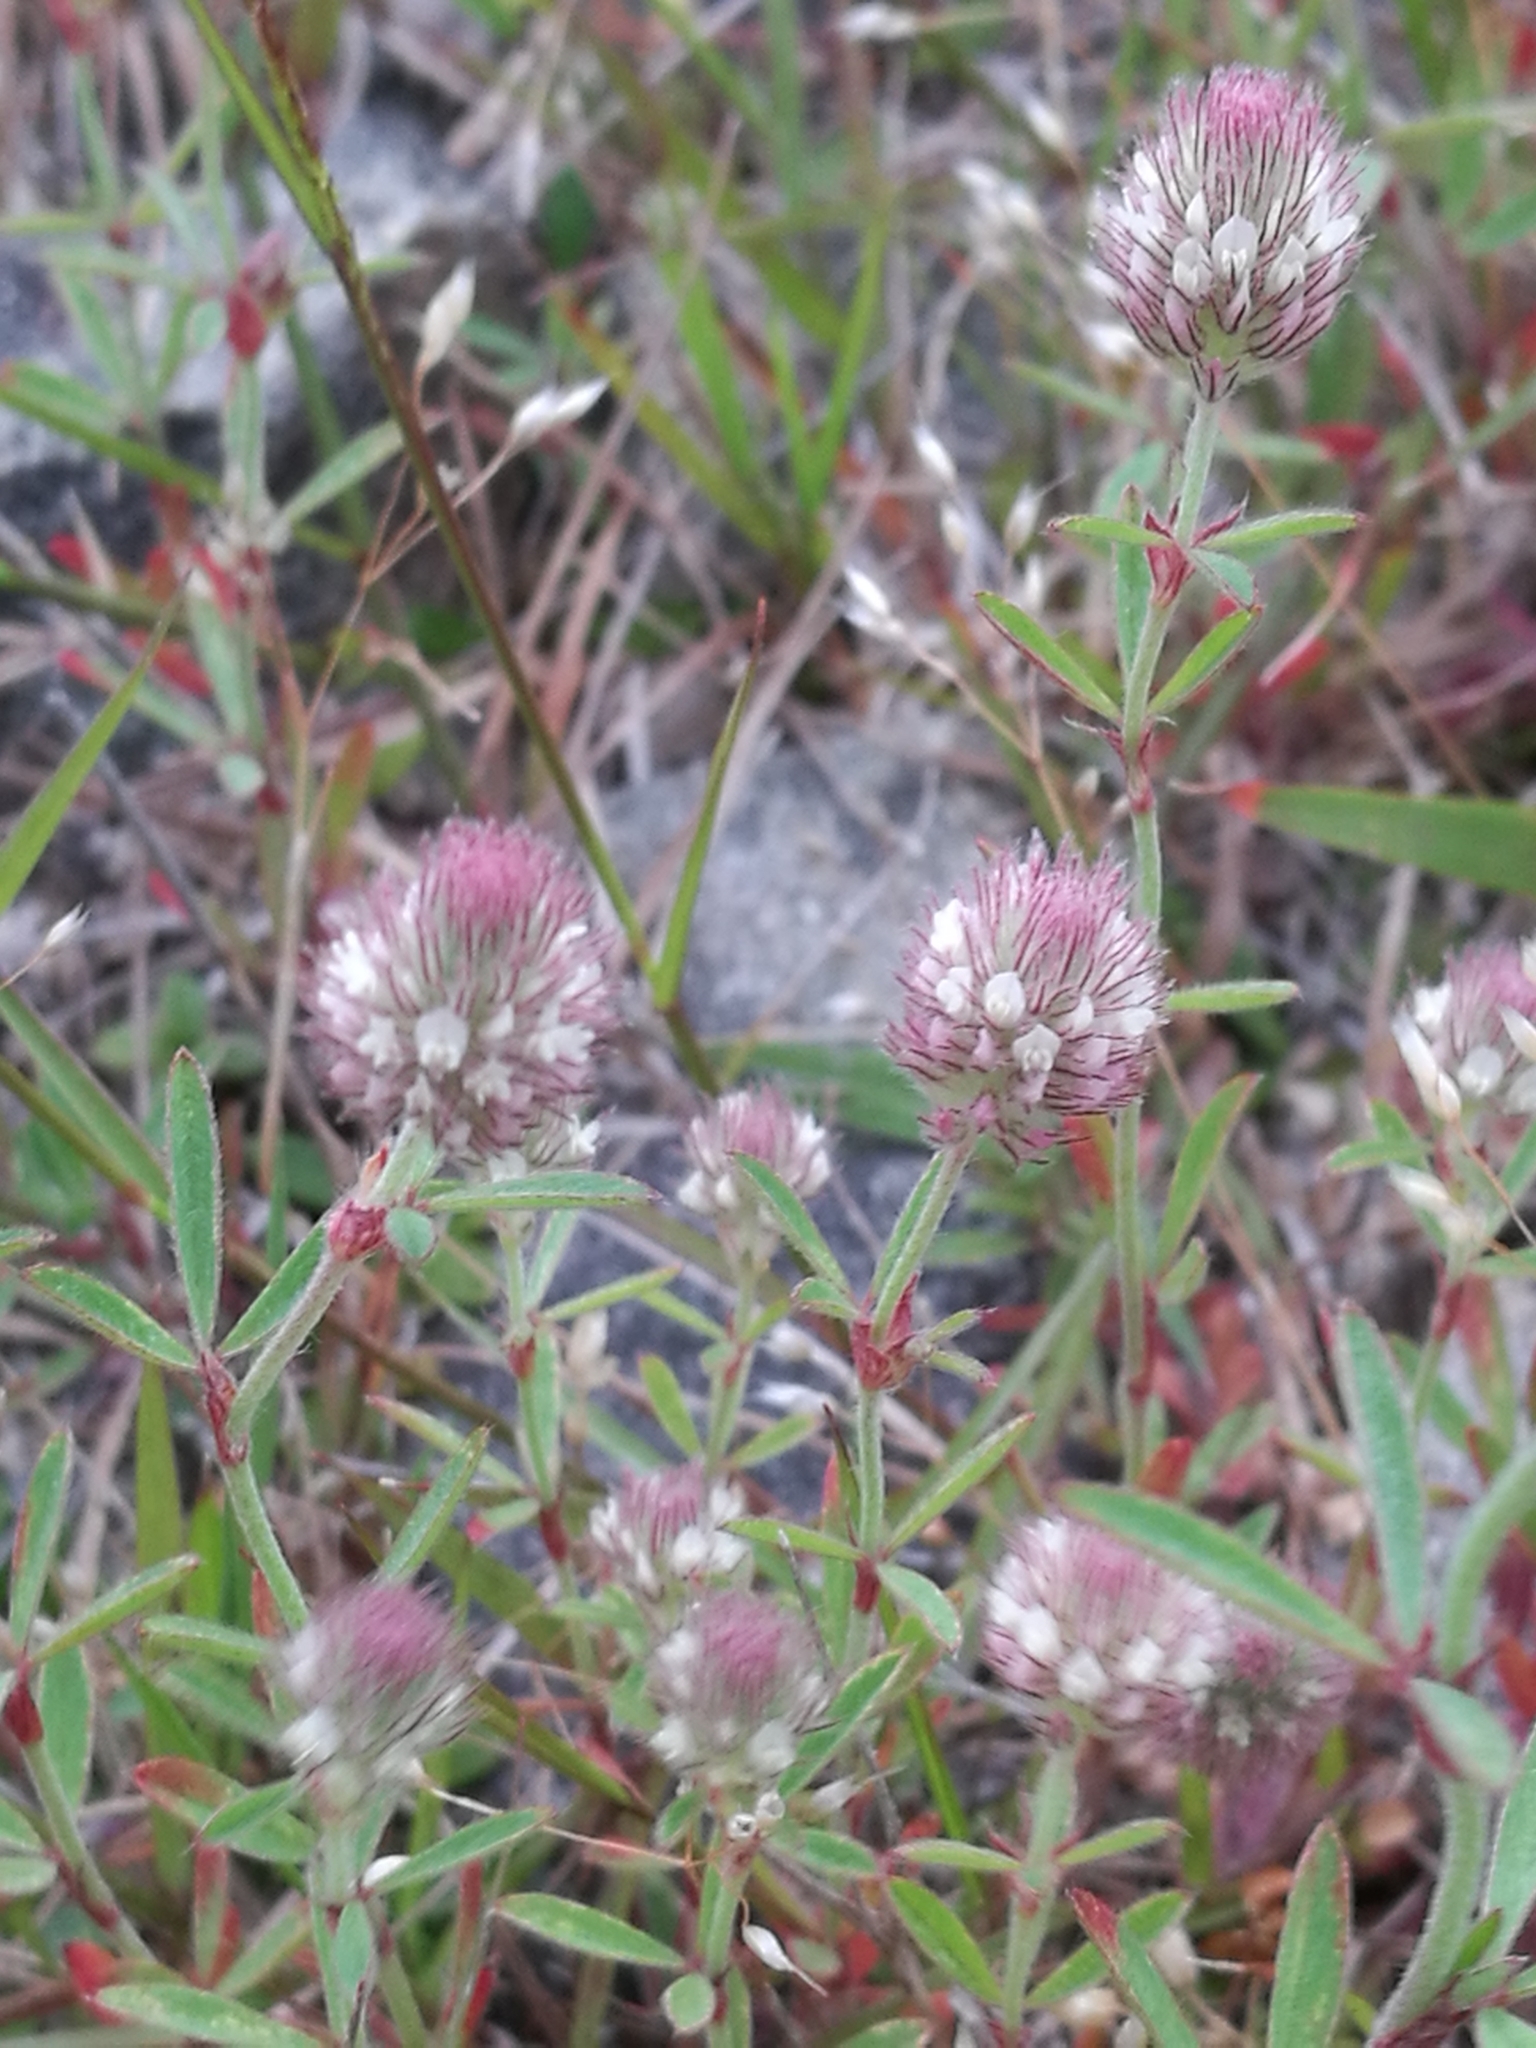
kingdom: Plantae
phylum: Tracheophyta
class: Magnoliopsida
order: Fabales
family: Fabaceae
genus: Trifolium
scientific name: Trifolium arvense
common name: Hare's-foot clover
